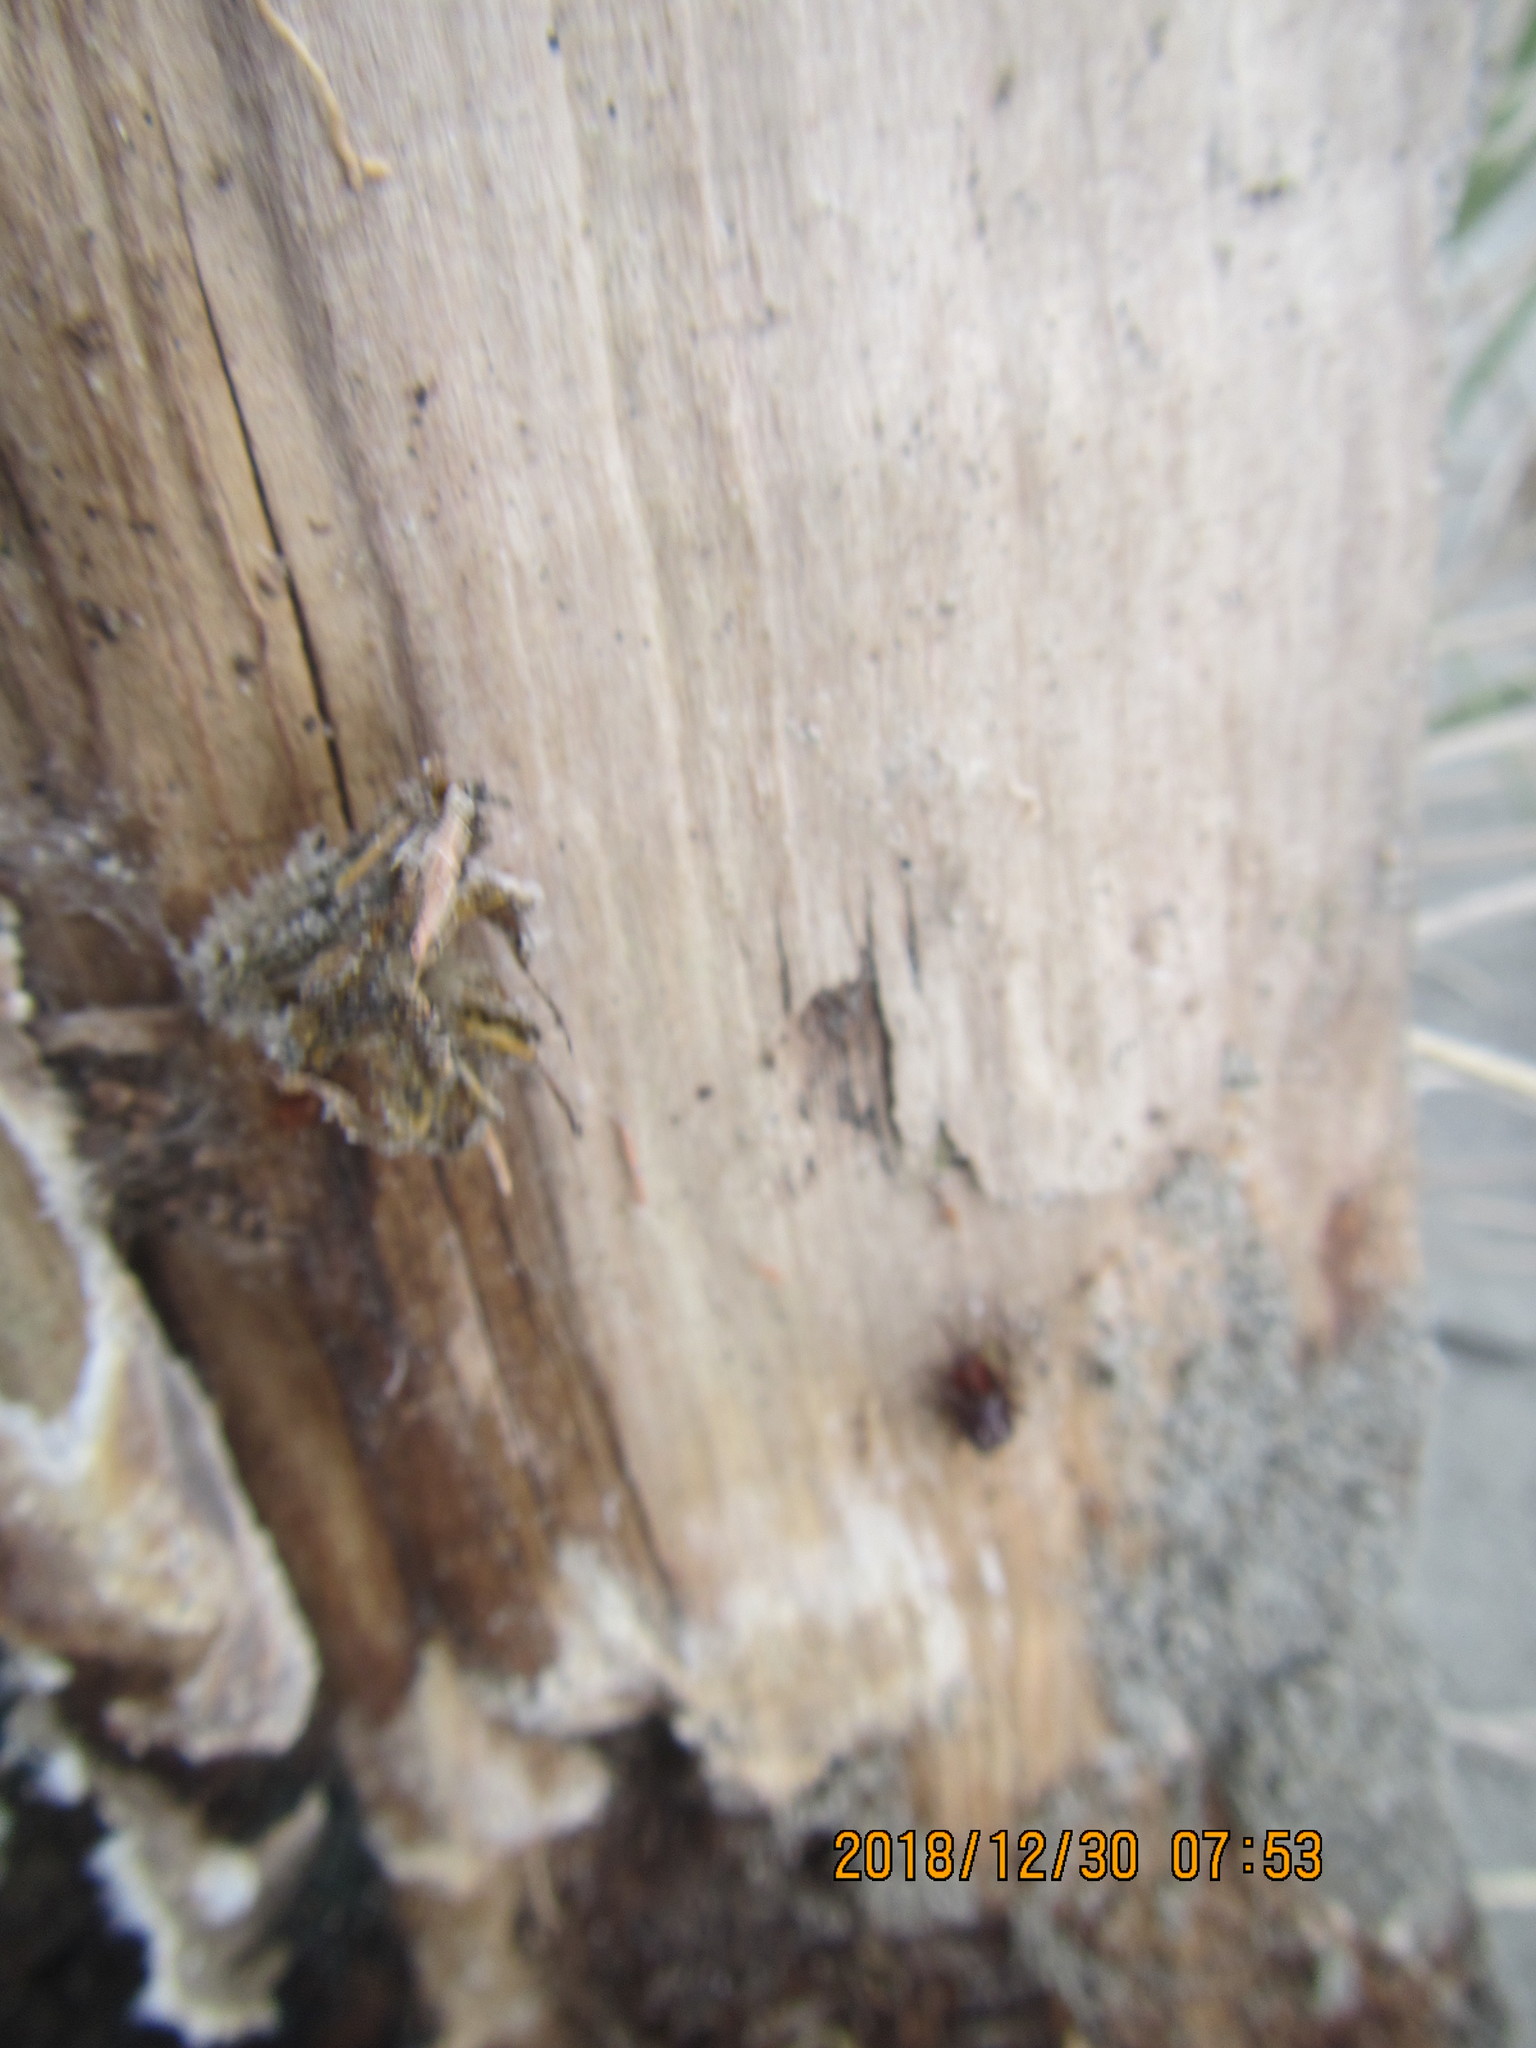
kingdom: Animalia
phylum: Arthropoda
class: Arachnida
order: Araneae
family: Theridiidae
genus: Steatoda
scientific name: Steatoda capensis
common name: Cobweb weaver
